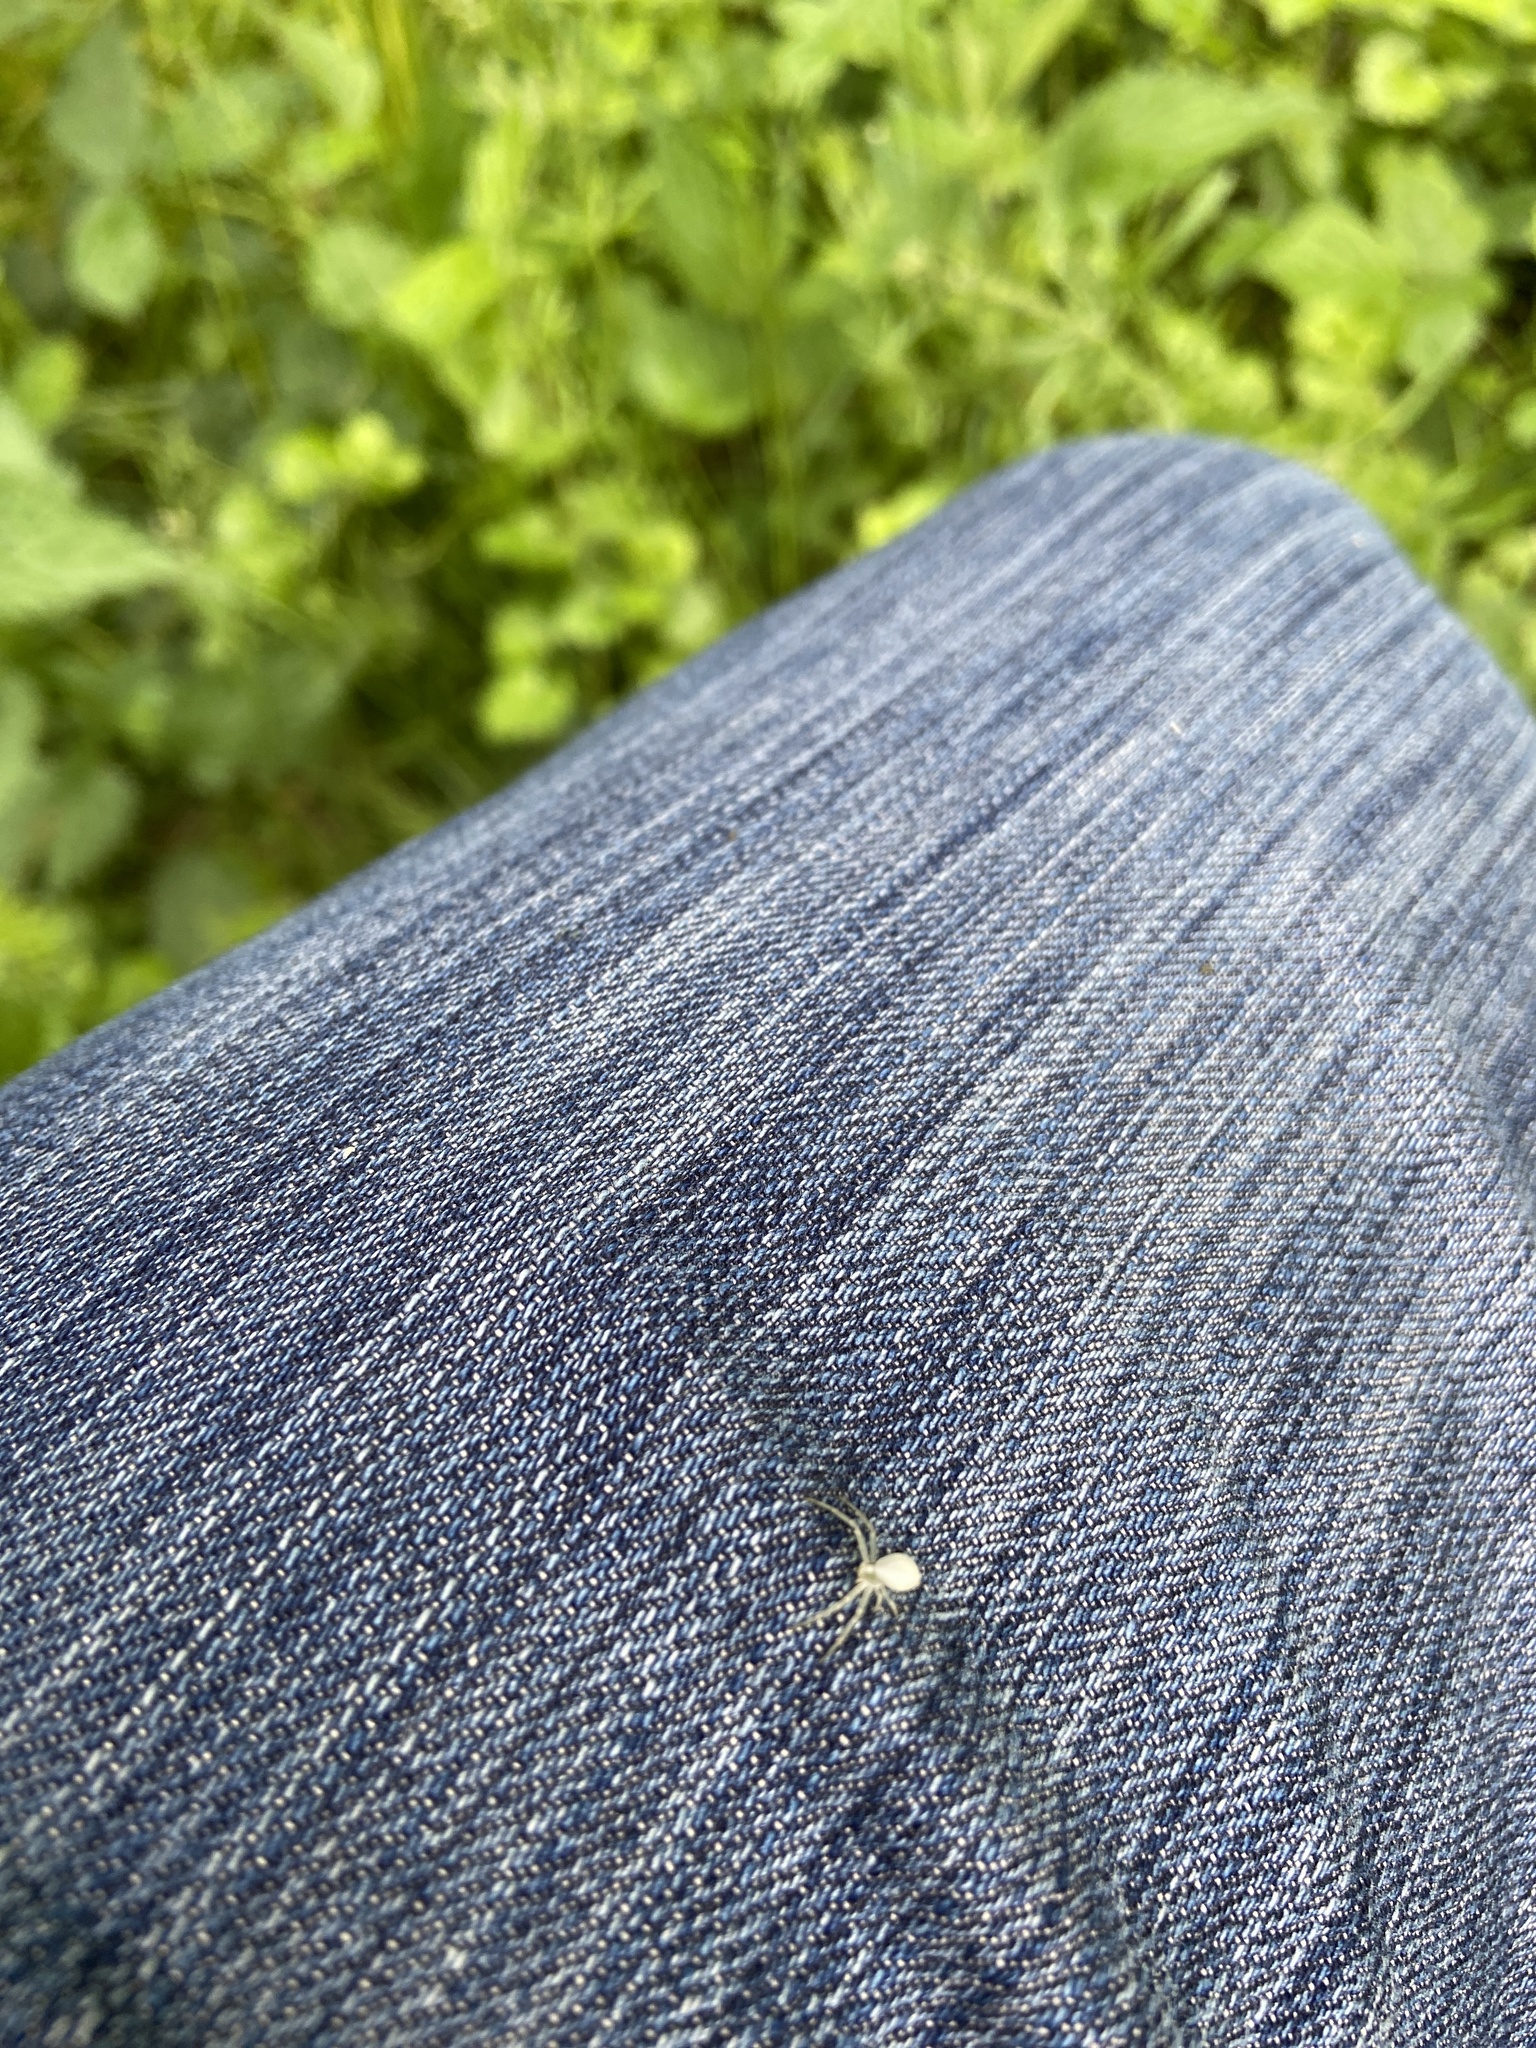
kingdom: Animalia
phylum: Arthropoda
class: Arachnida
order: Araneae
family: Thomisidae
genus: Misumena
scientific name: Misumena vatia
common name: Goldenrod crab spider
